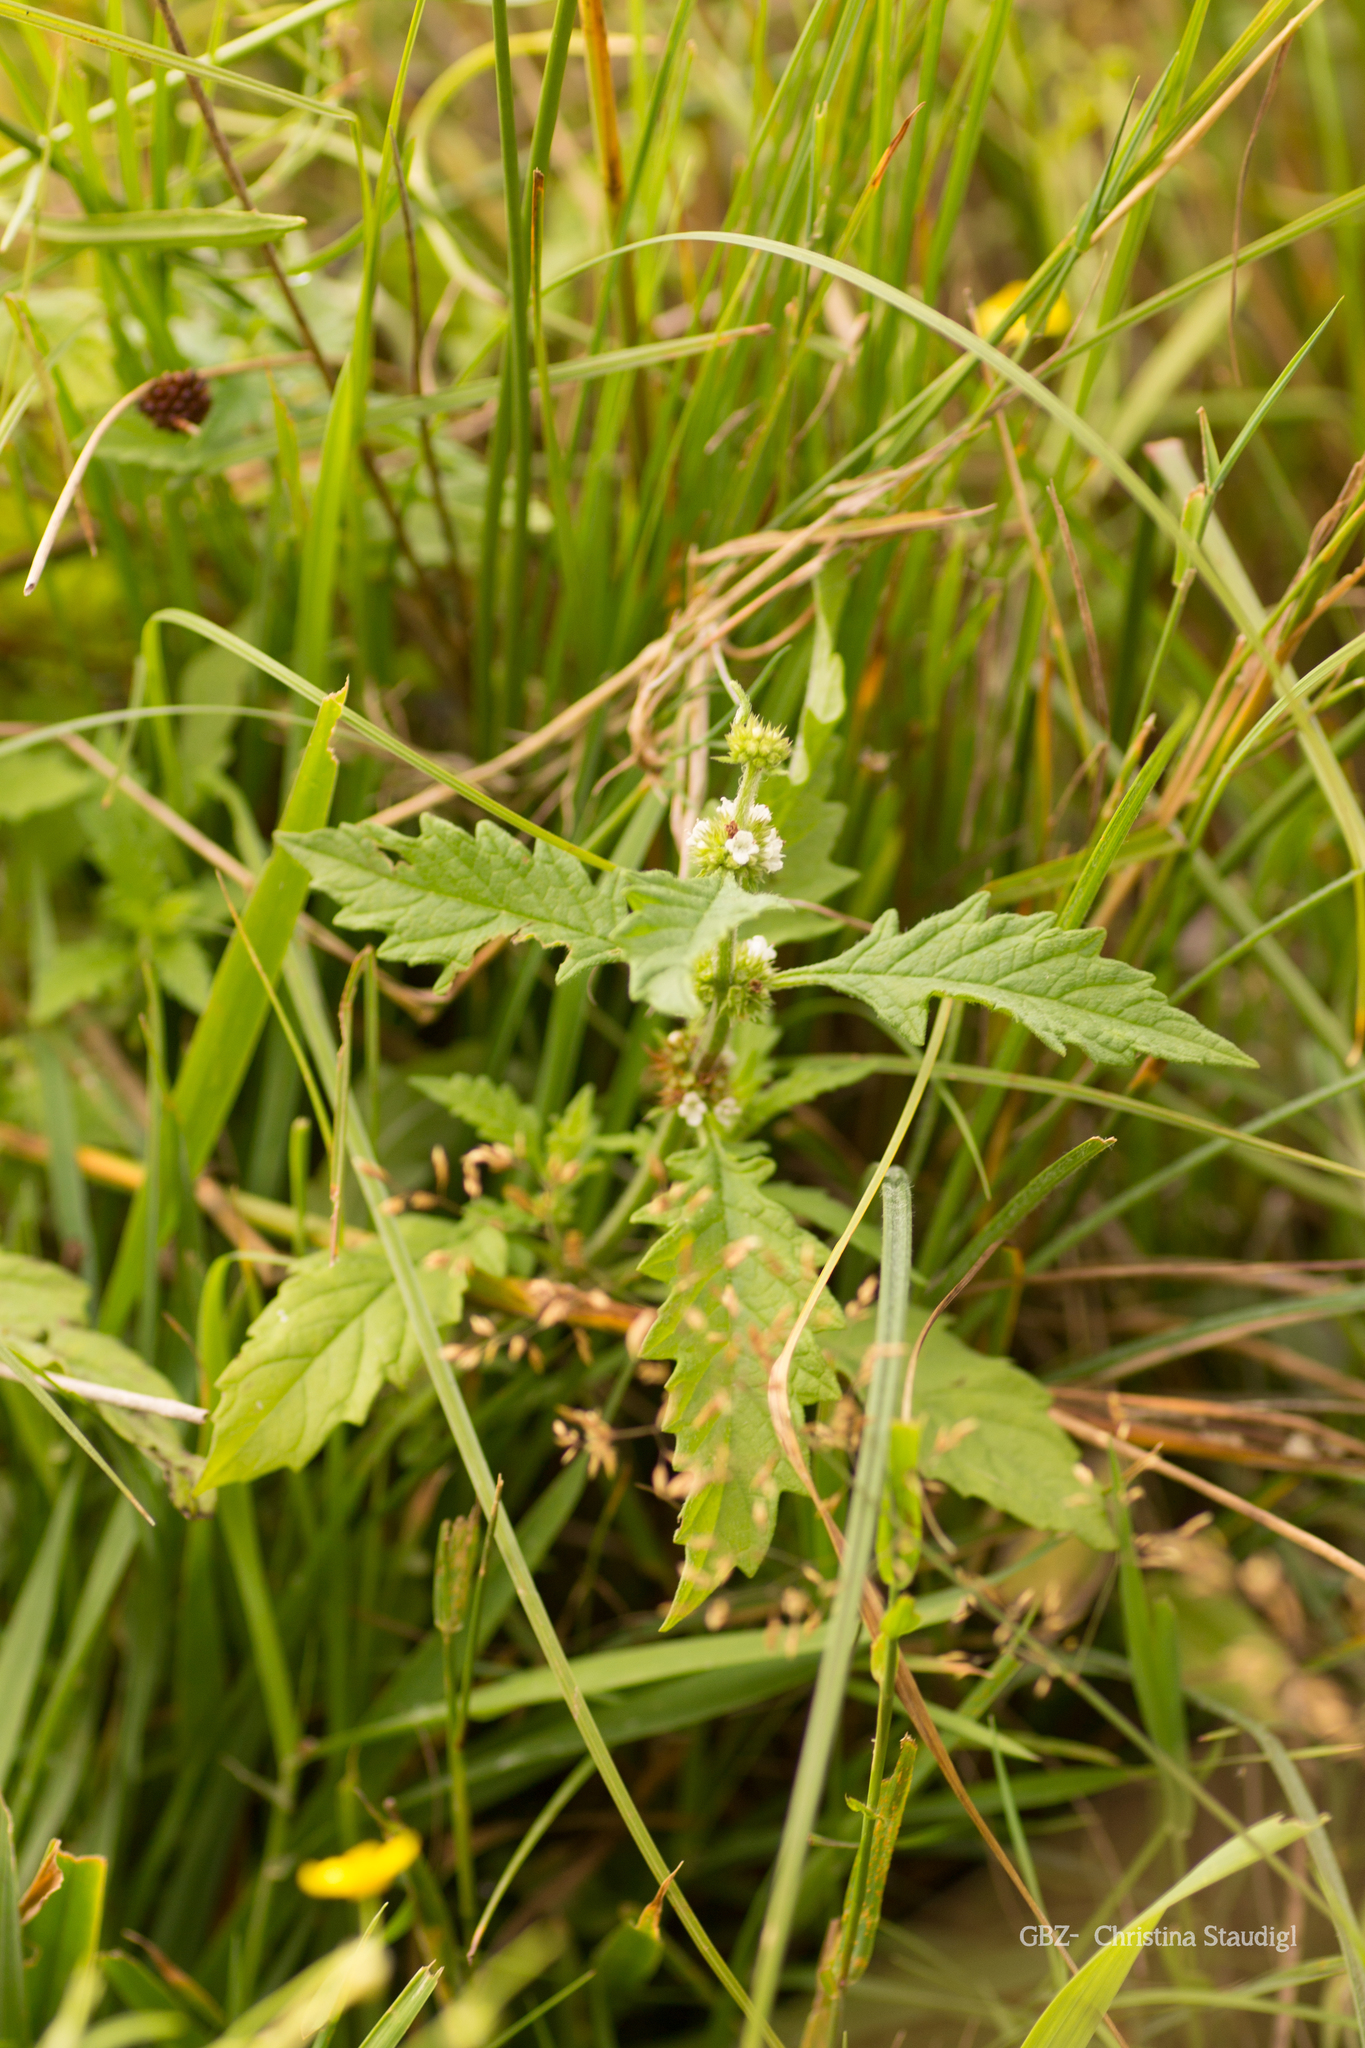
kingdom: Plantae
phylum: Tracheophyta
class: Magnoliopsida
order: Lamiales
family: Lamiaceae
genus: Lycopus
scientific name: Lycopus europaeus
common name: European bugleweed
